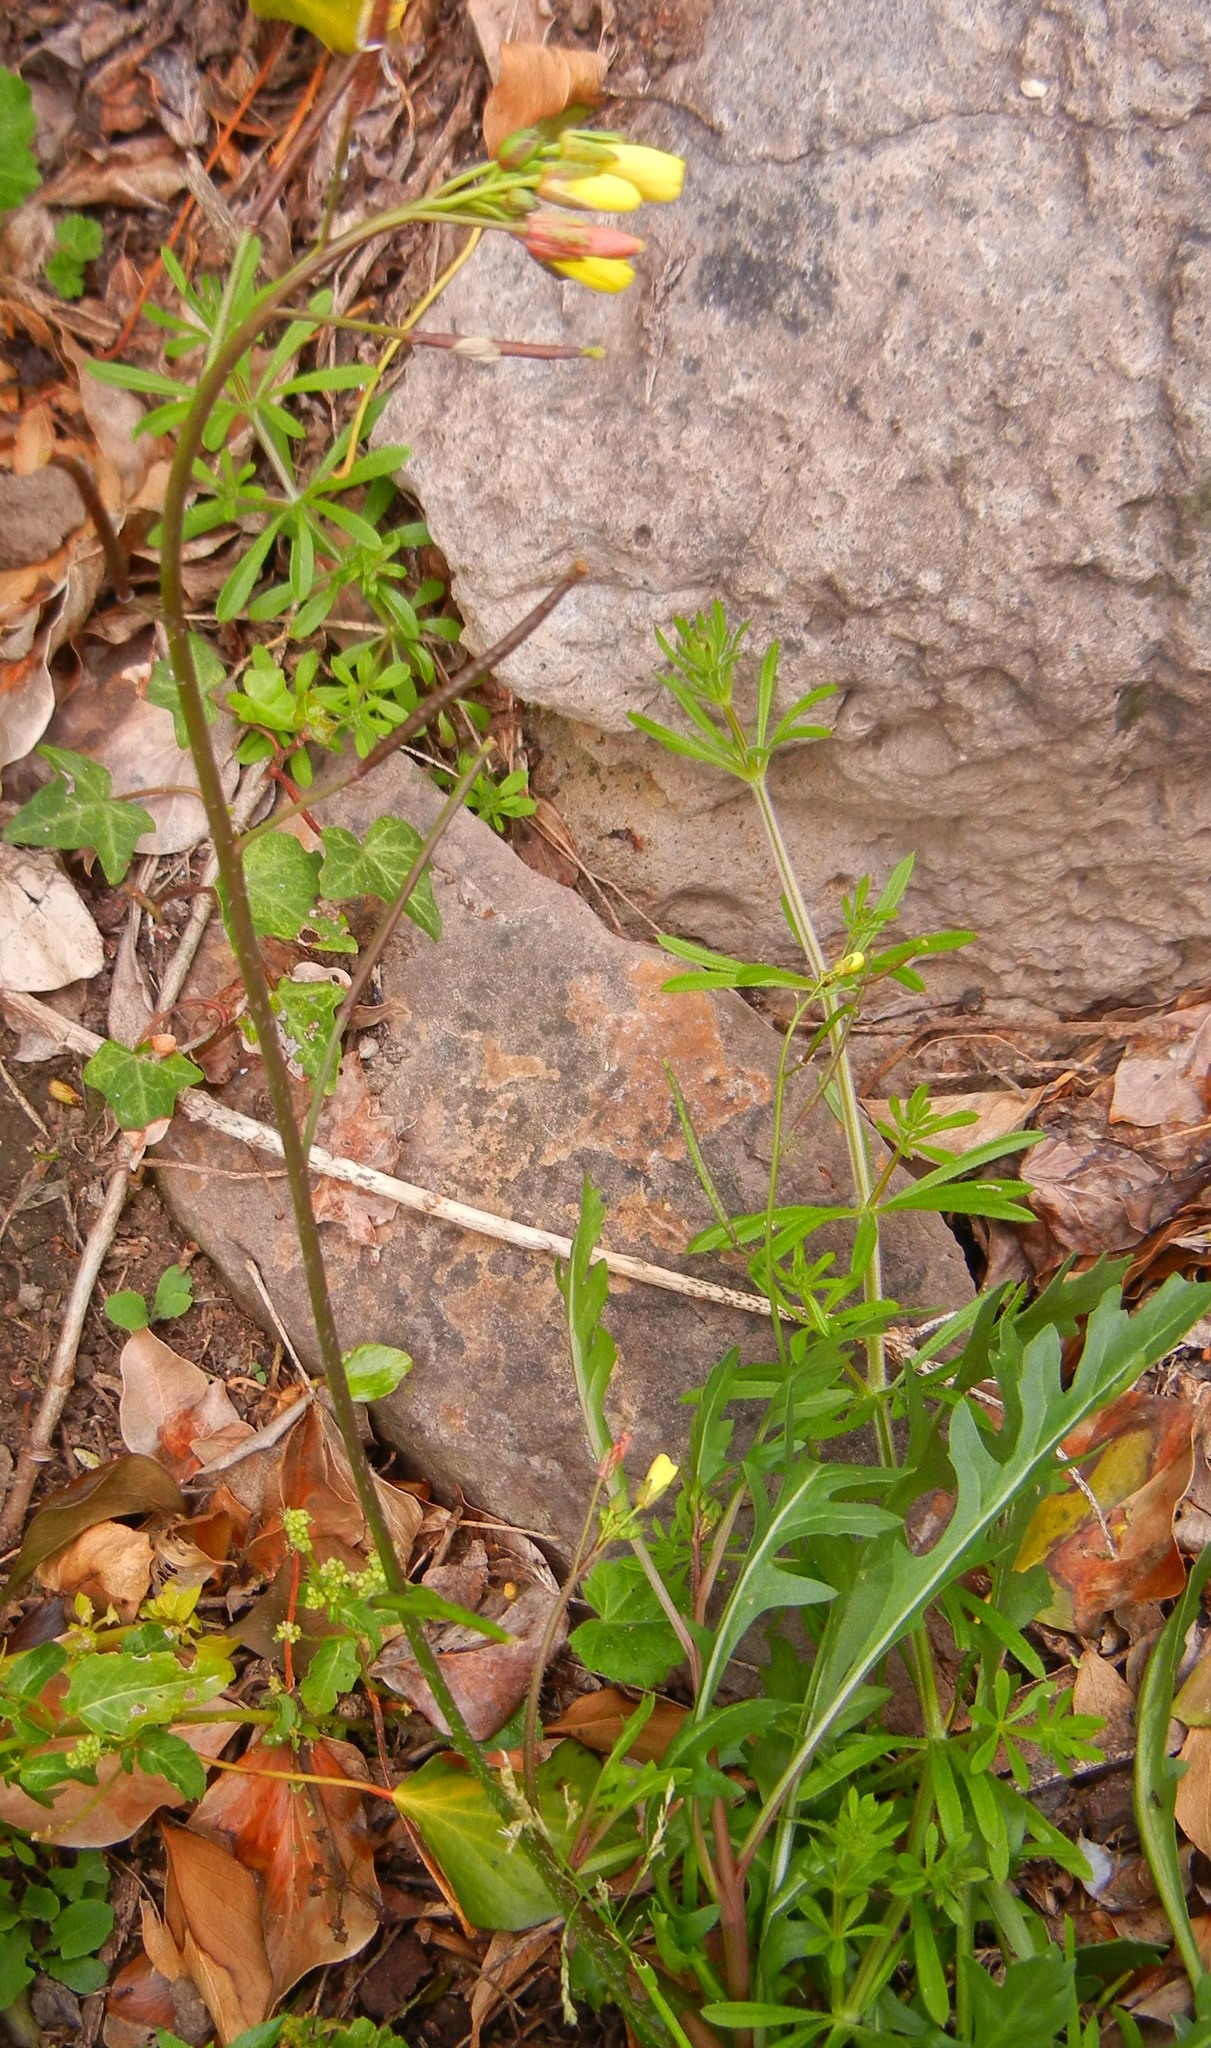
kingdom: Plantae
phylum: Tracheophyta
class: Magnoliopsida
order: Brassicales
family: Brassicaceae
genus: Diplotaxis
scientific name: Diplotaxis muralis
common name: Annual wall-rocket
